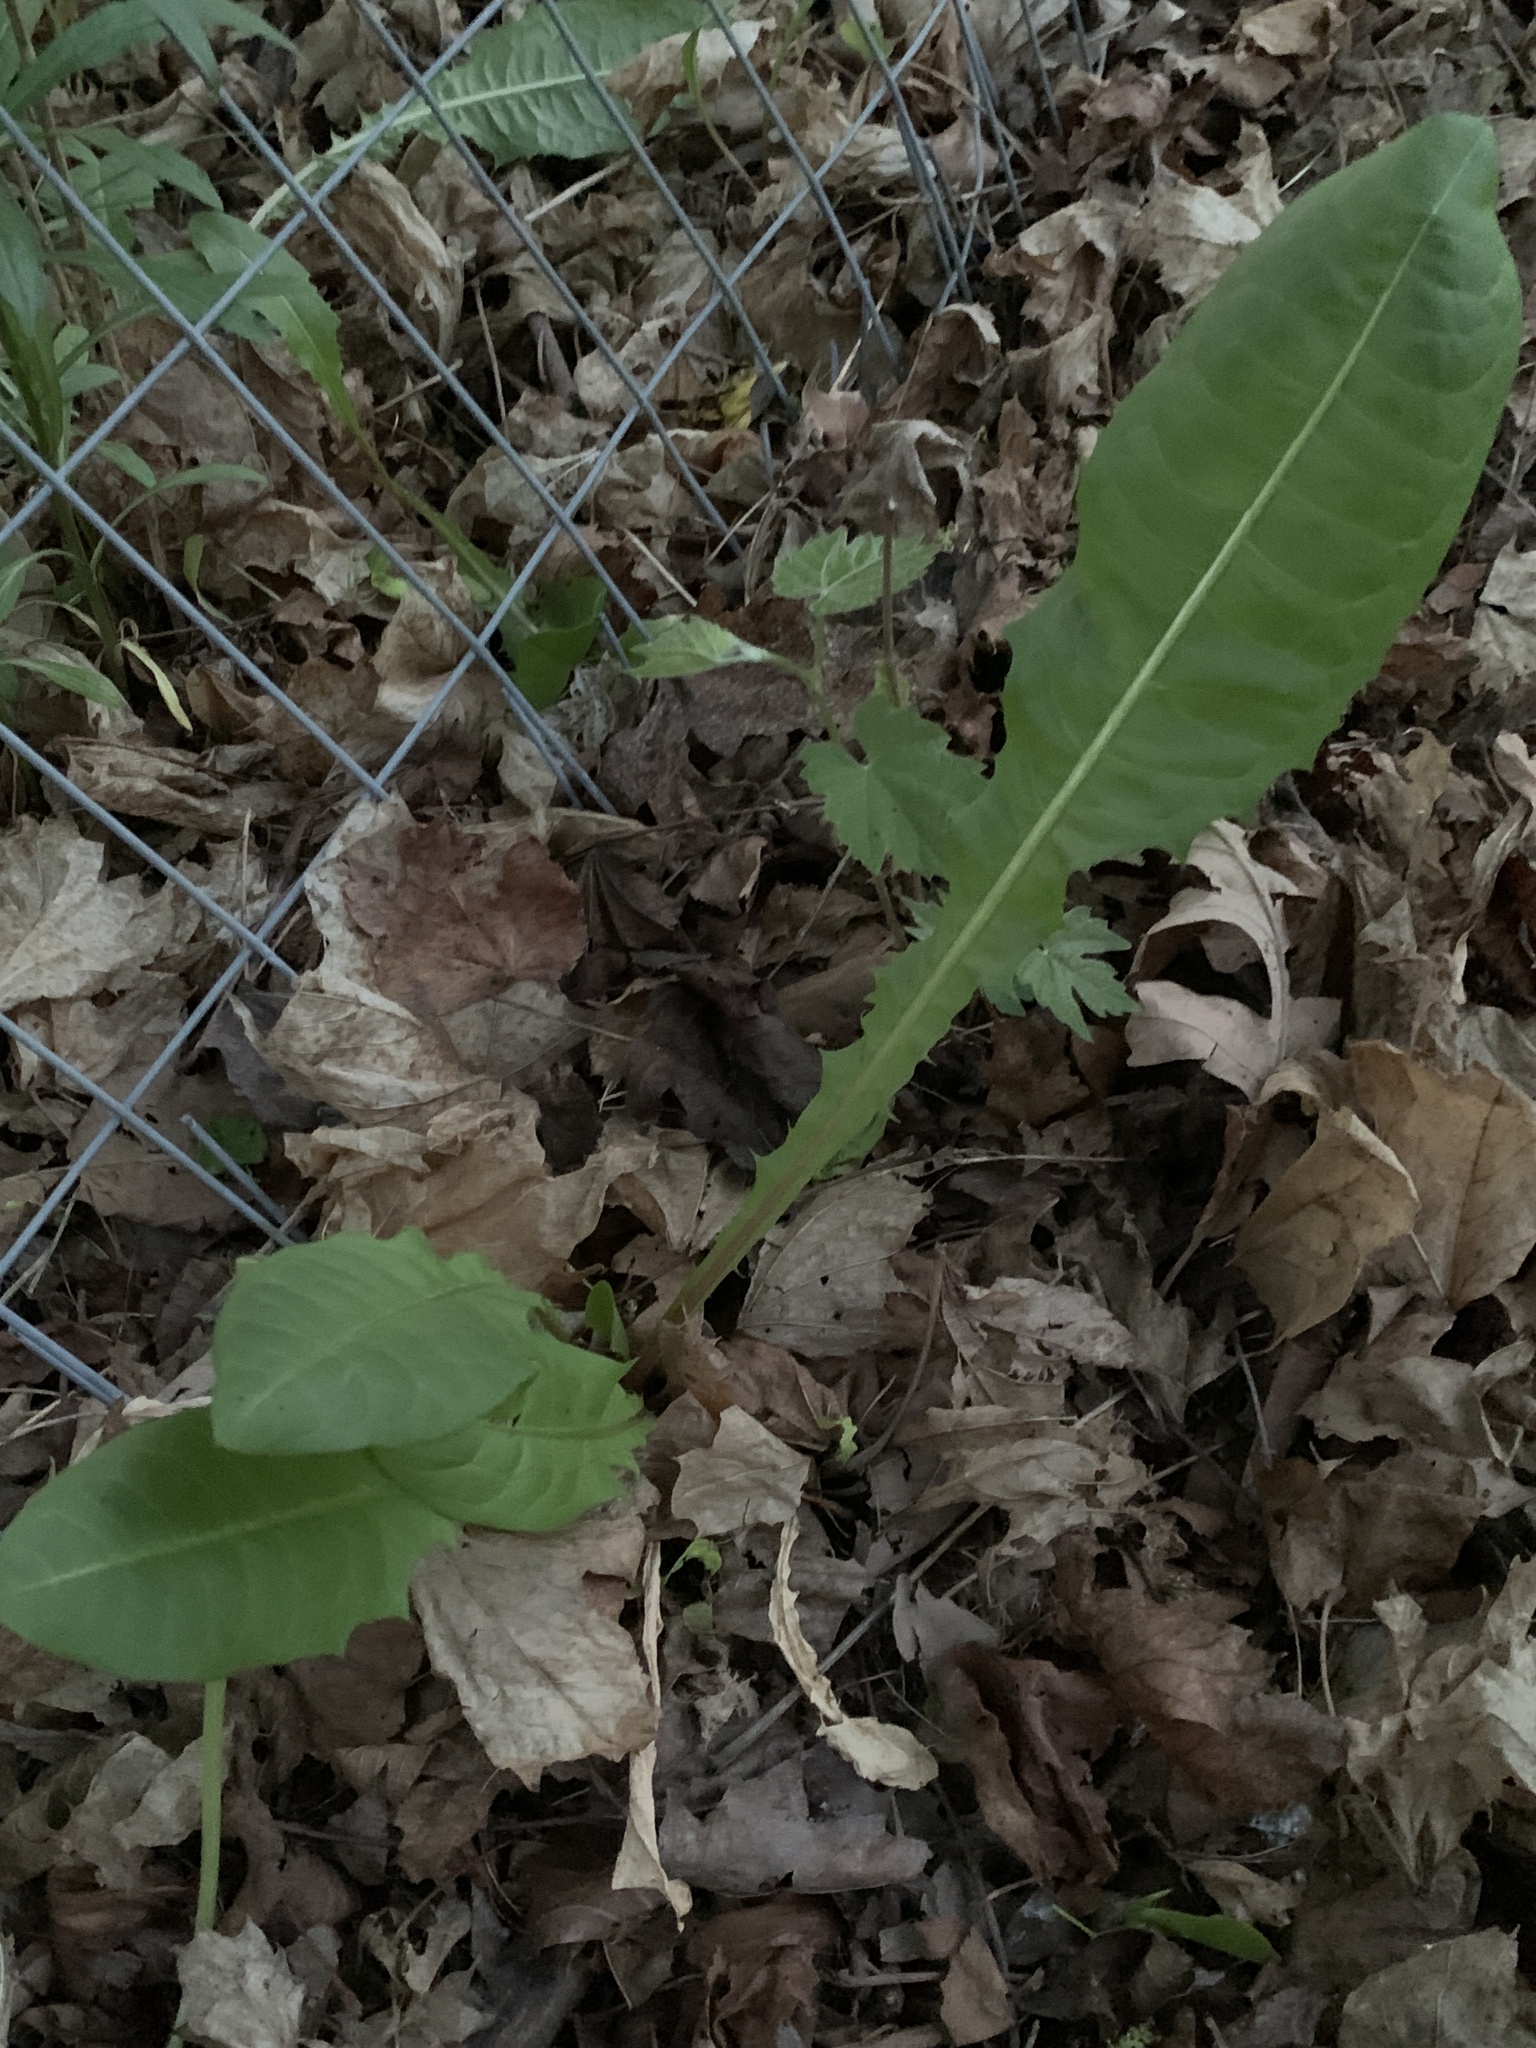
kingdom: Plantae
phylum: Tracheophyta
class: Magnoliopsida
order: Asterales
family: Asteraceae
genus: Taraxacum
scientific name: Taraxacum officinale
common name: Common dandelion
